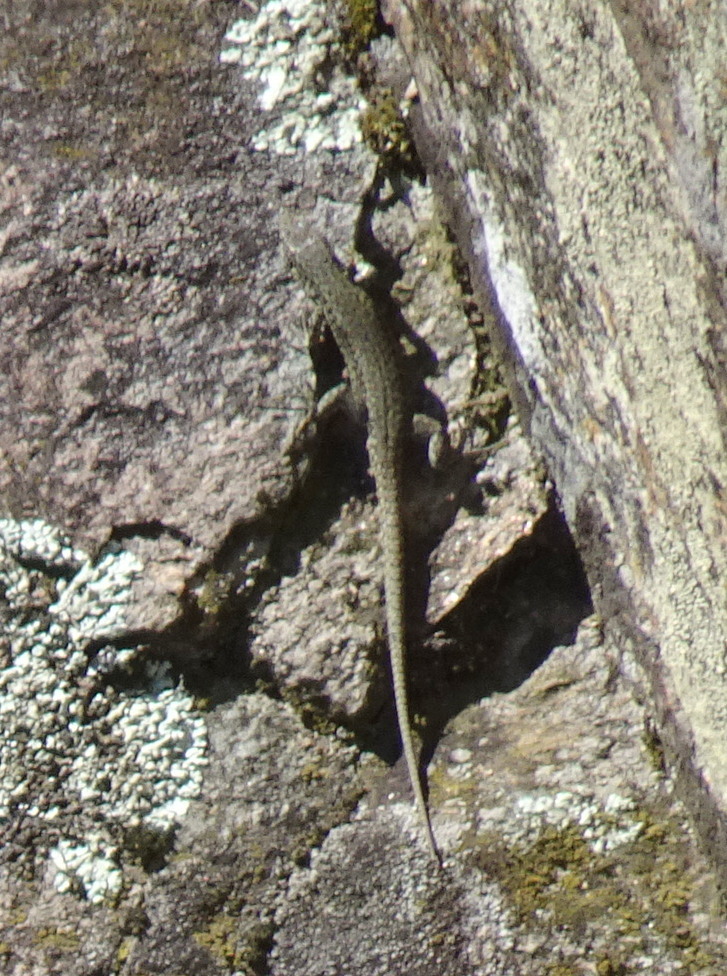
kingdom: Animalia
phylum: Chordata
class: Squamata
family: Lacertidae
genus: Podarcis
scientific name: Podarcis muralis
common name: Common wall lizard
